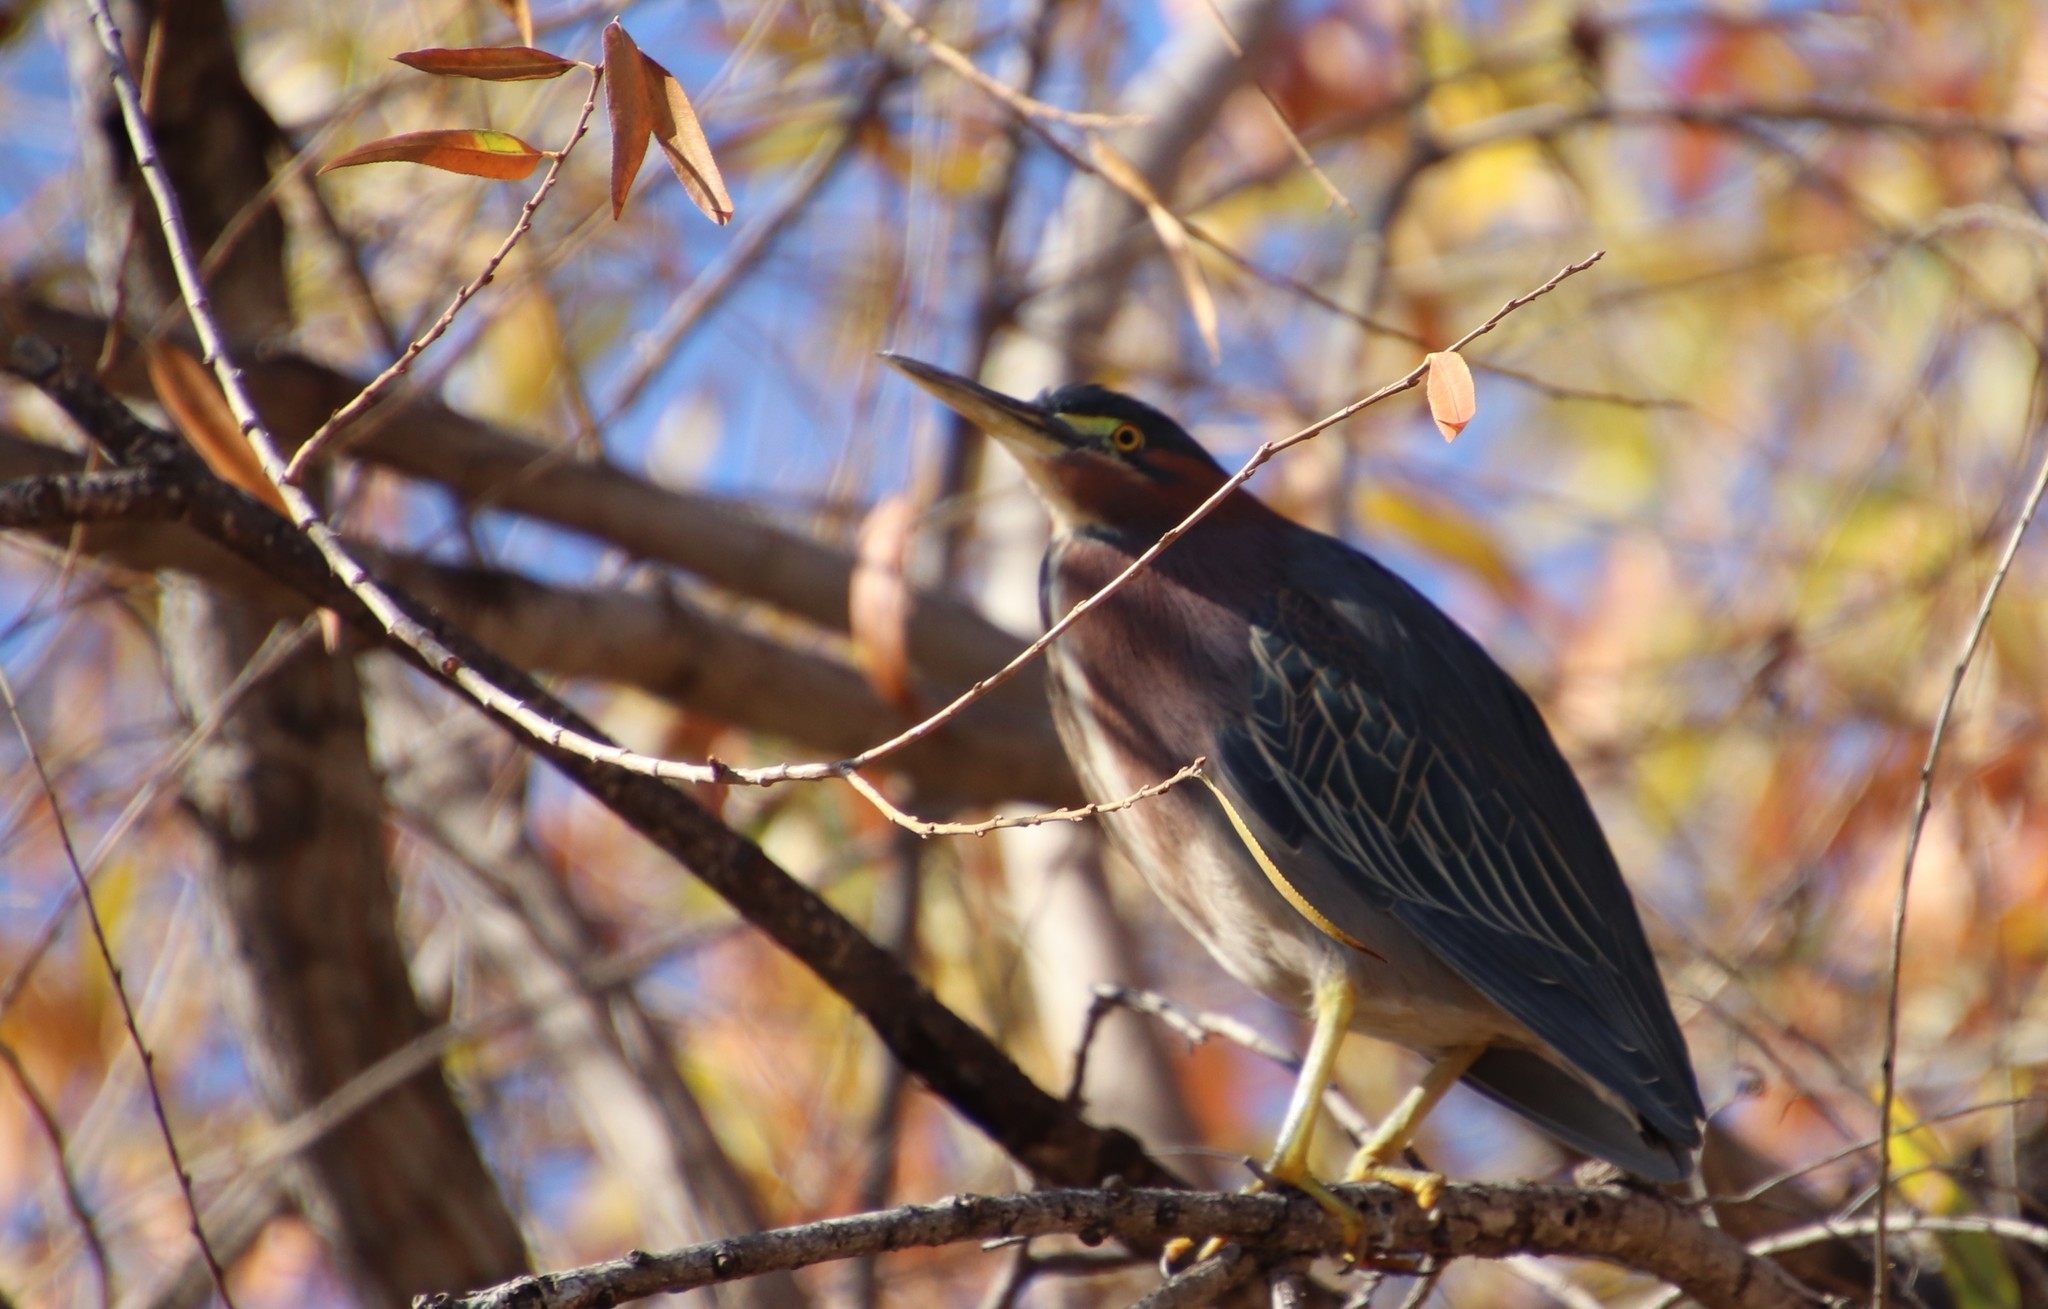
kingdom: Animalia
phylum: Chordata
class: Aves
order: Pelecaniformes
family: Ardeidae
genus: Butorides
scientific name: Butorides virescens
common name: Green heron
